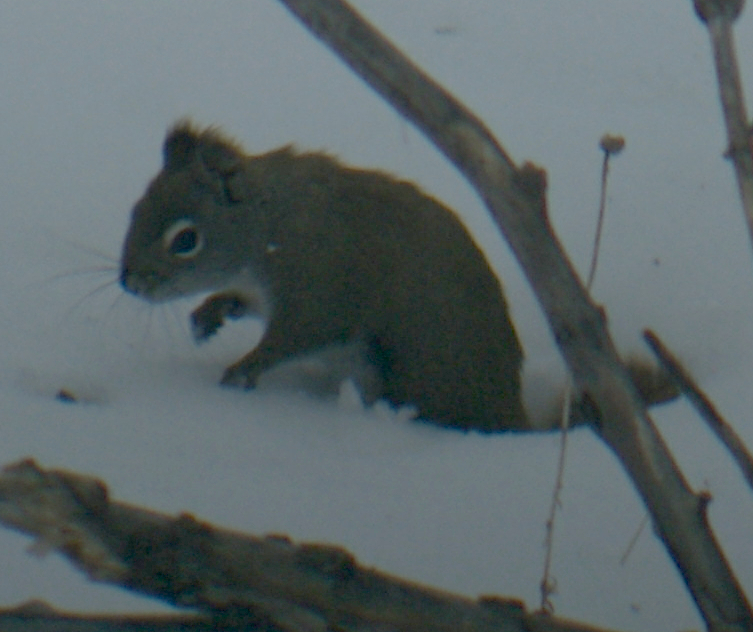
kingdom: Animalia
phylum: Chordata
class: Mammalia
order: Rodentia
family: Sciuridae
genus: Tamiasciurus
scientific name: Tamiasciurus hudsonicus
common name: Red squirrel
